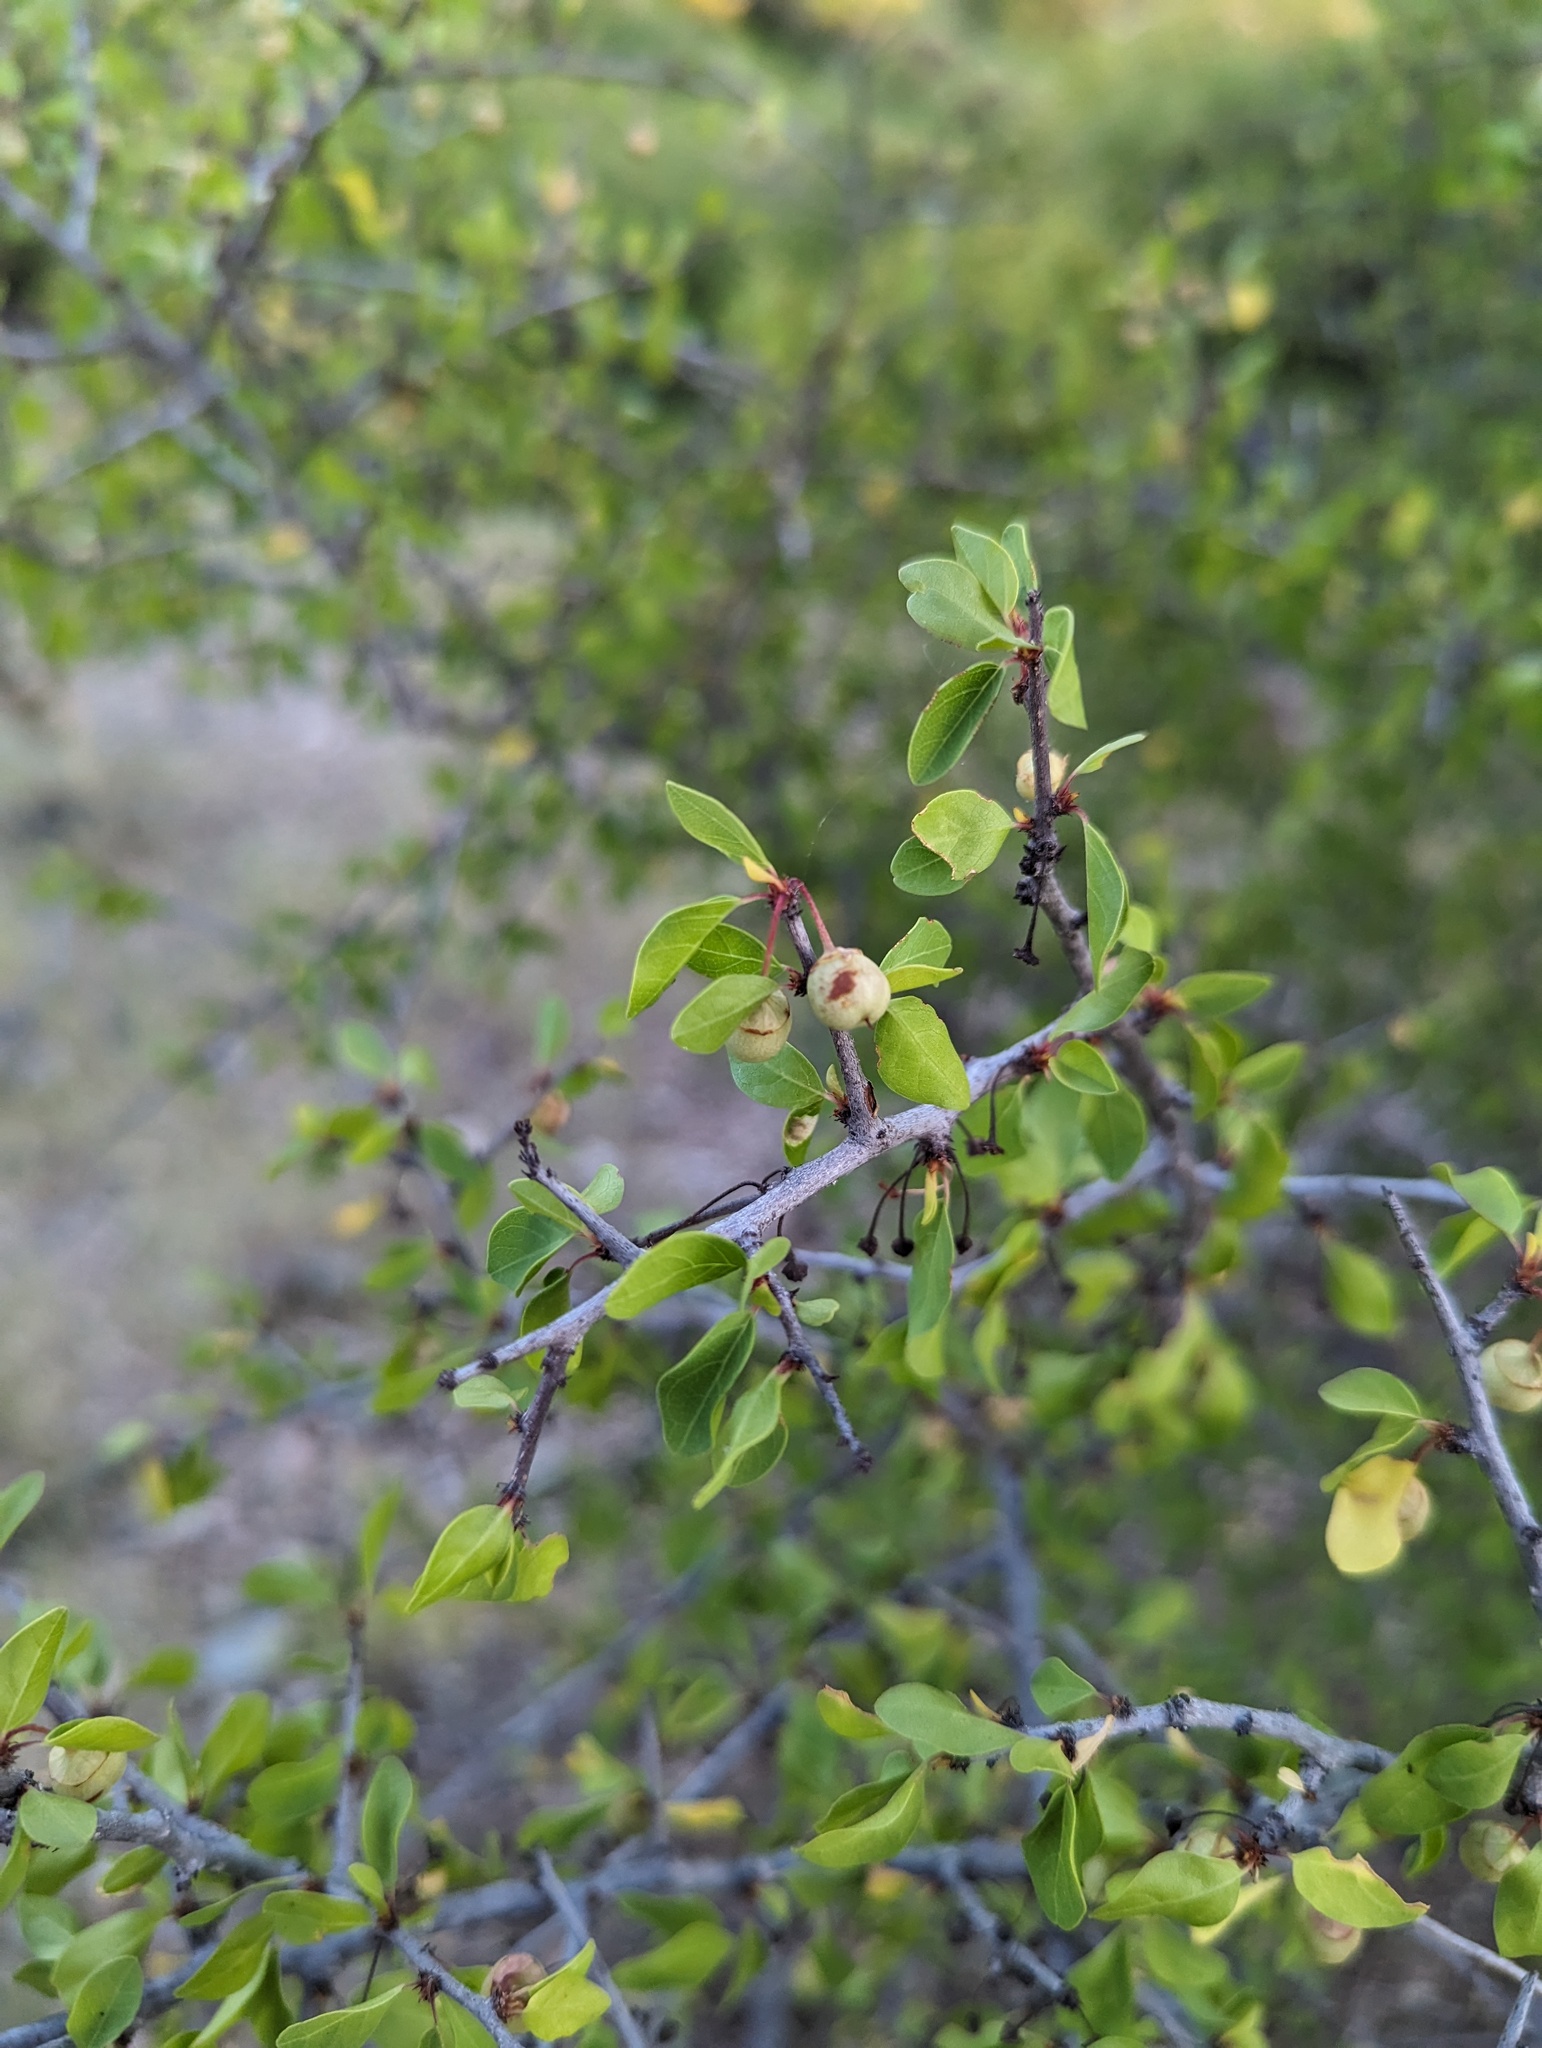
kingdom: Plantae
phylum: Tracheophyta
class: Magnoliopsida
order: Rosales
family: Rhamnaceae
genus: Colubrina
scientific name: Colubrina viridis
